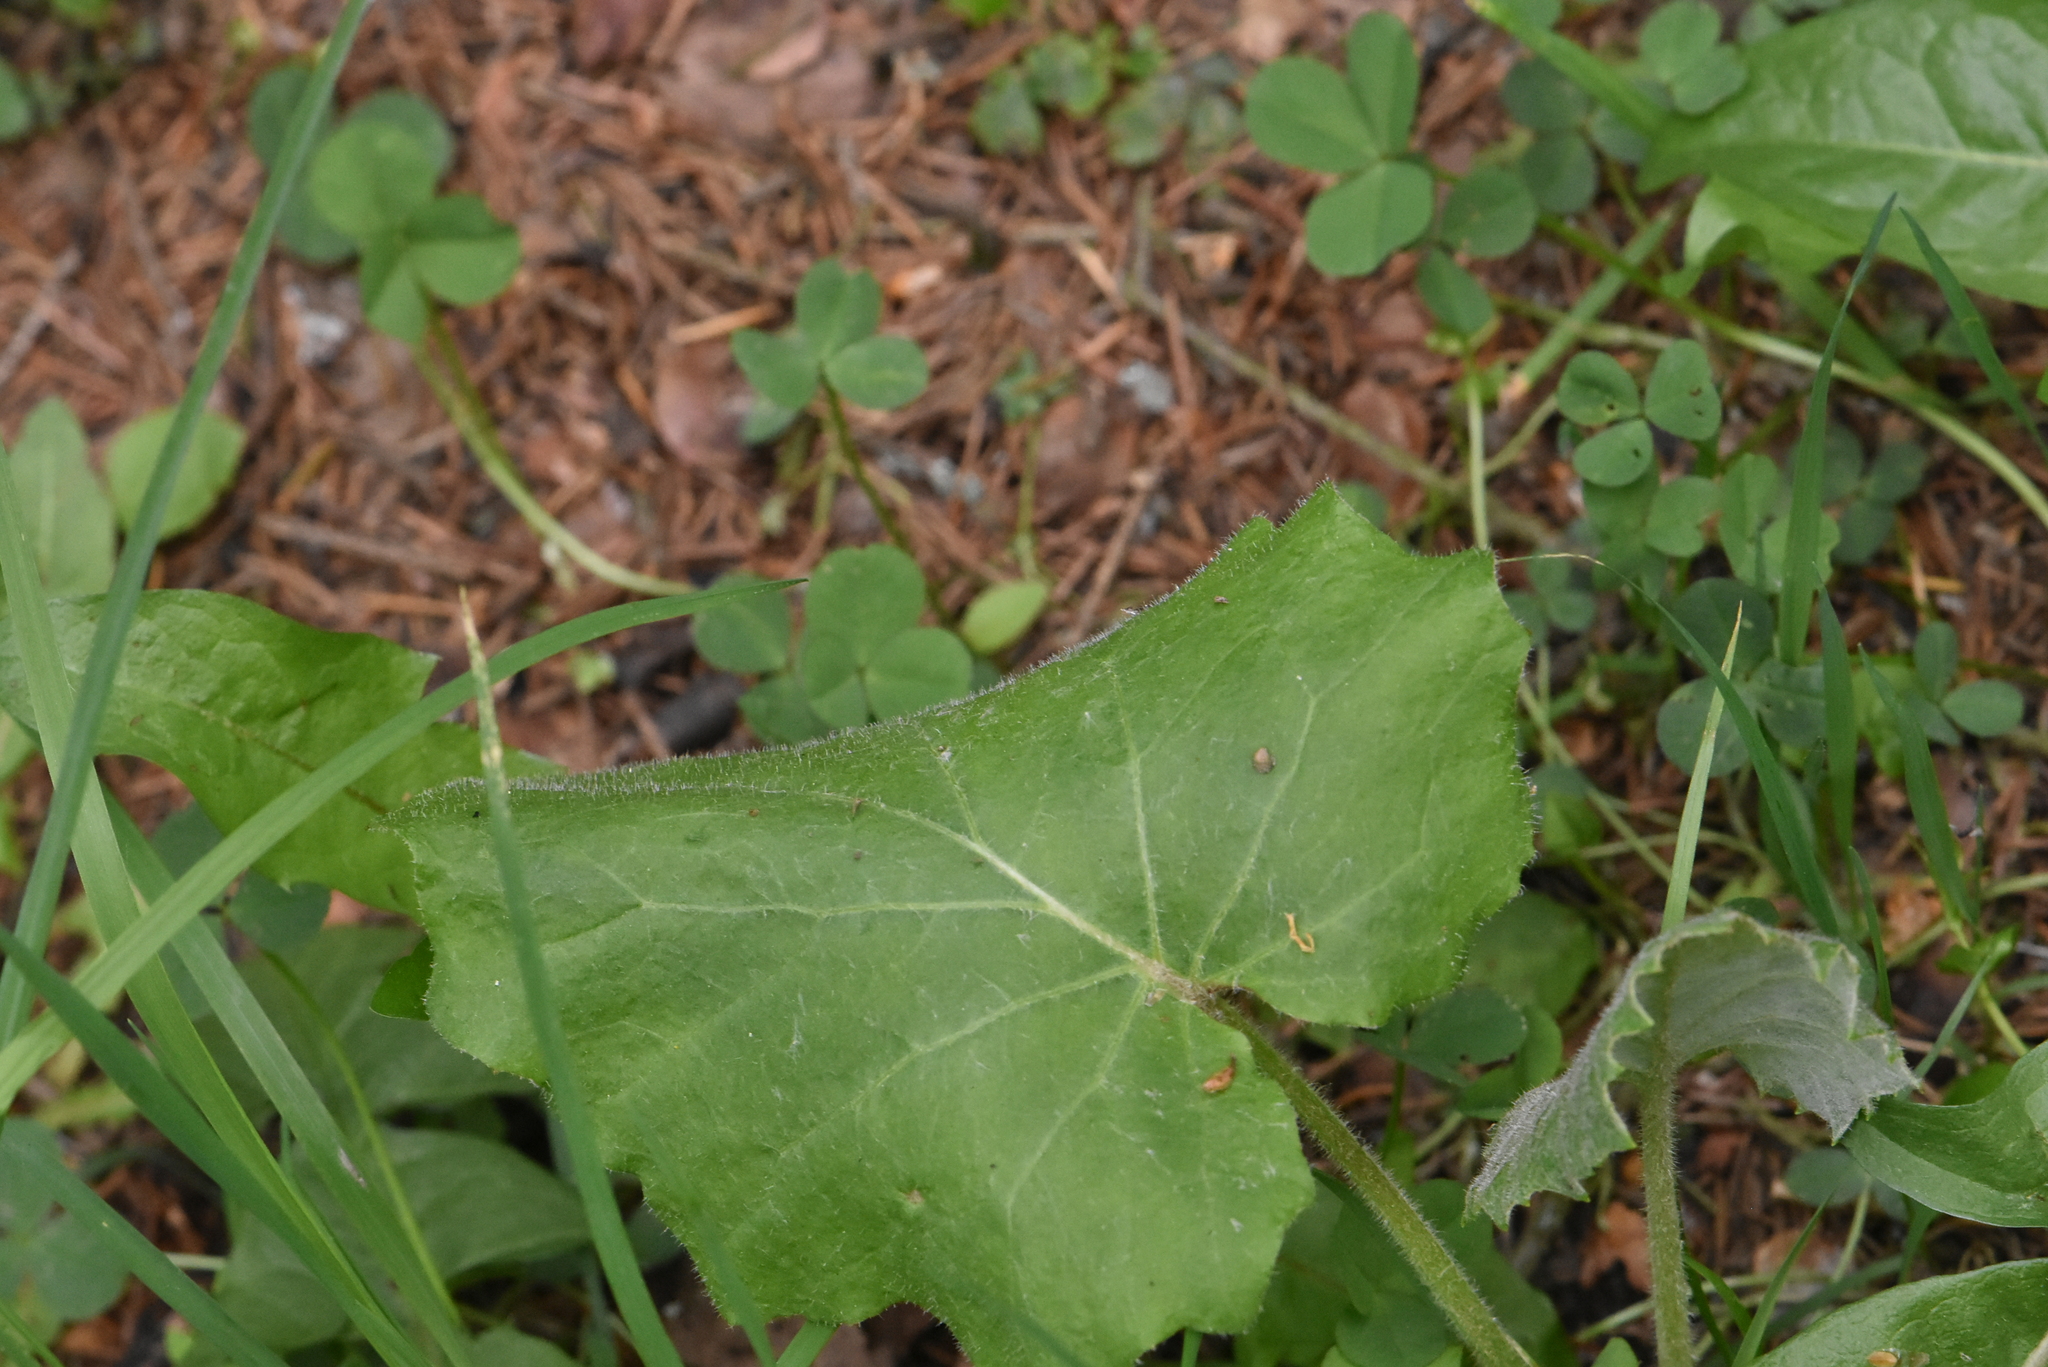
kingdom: Plantae
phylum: Tracheophyta
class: Magnoliopsida
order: Asterales
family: Asteraceae
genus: Tussilago
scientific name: Tussilago farfara
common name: Coltsfoot
